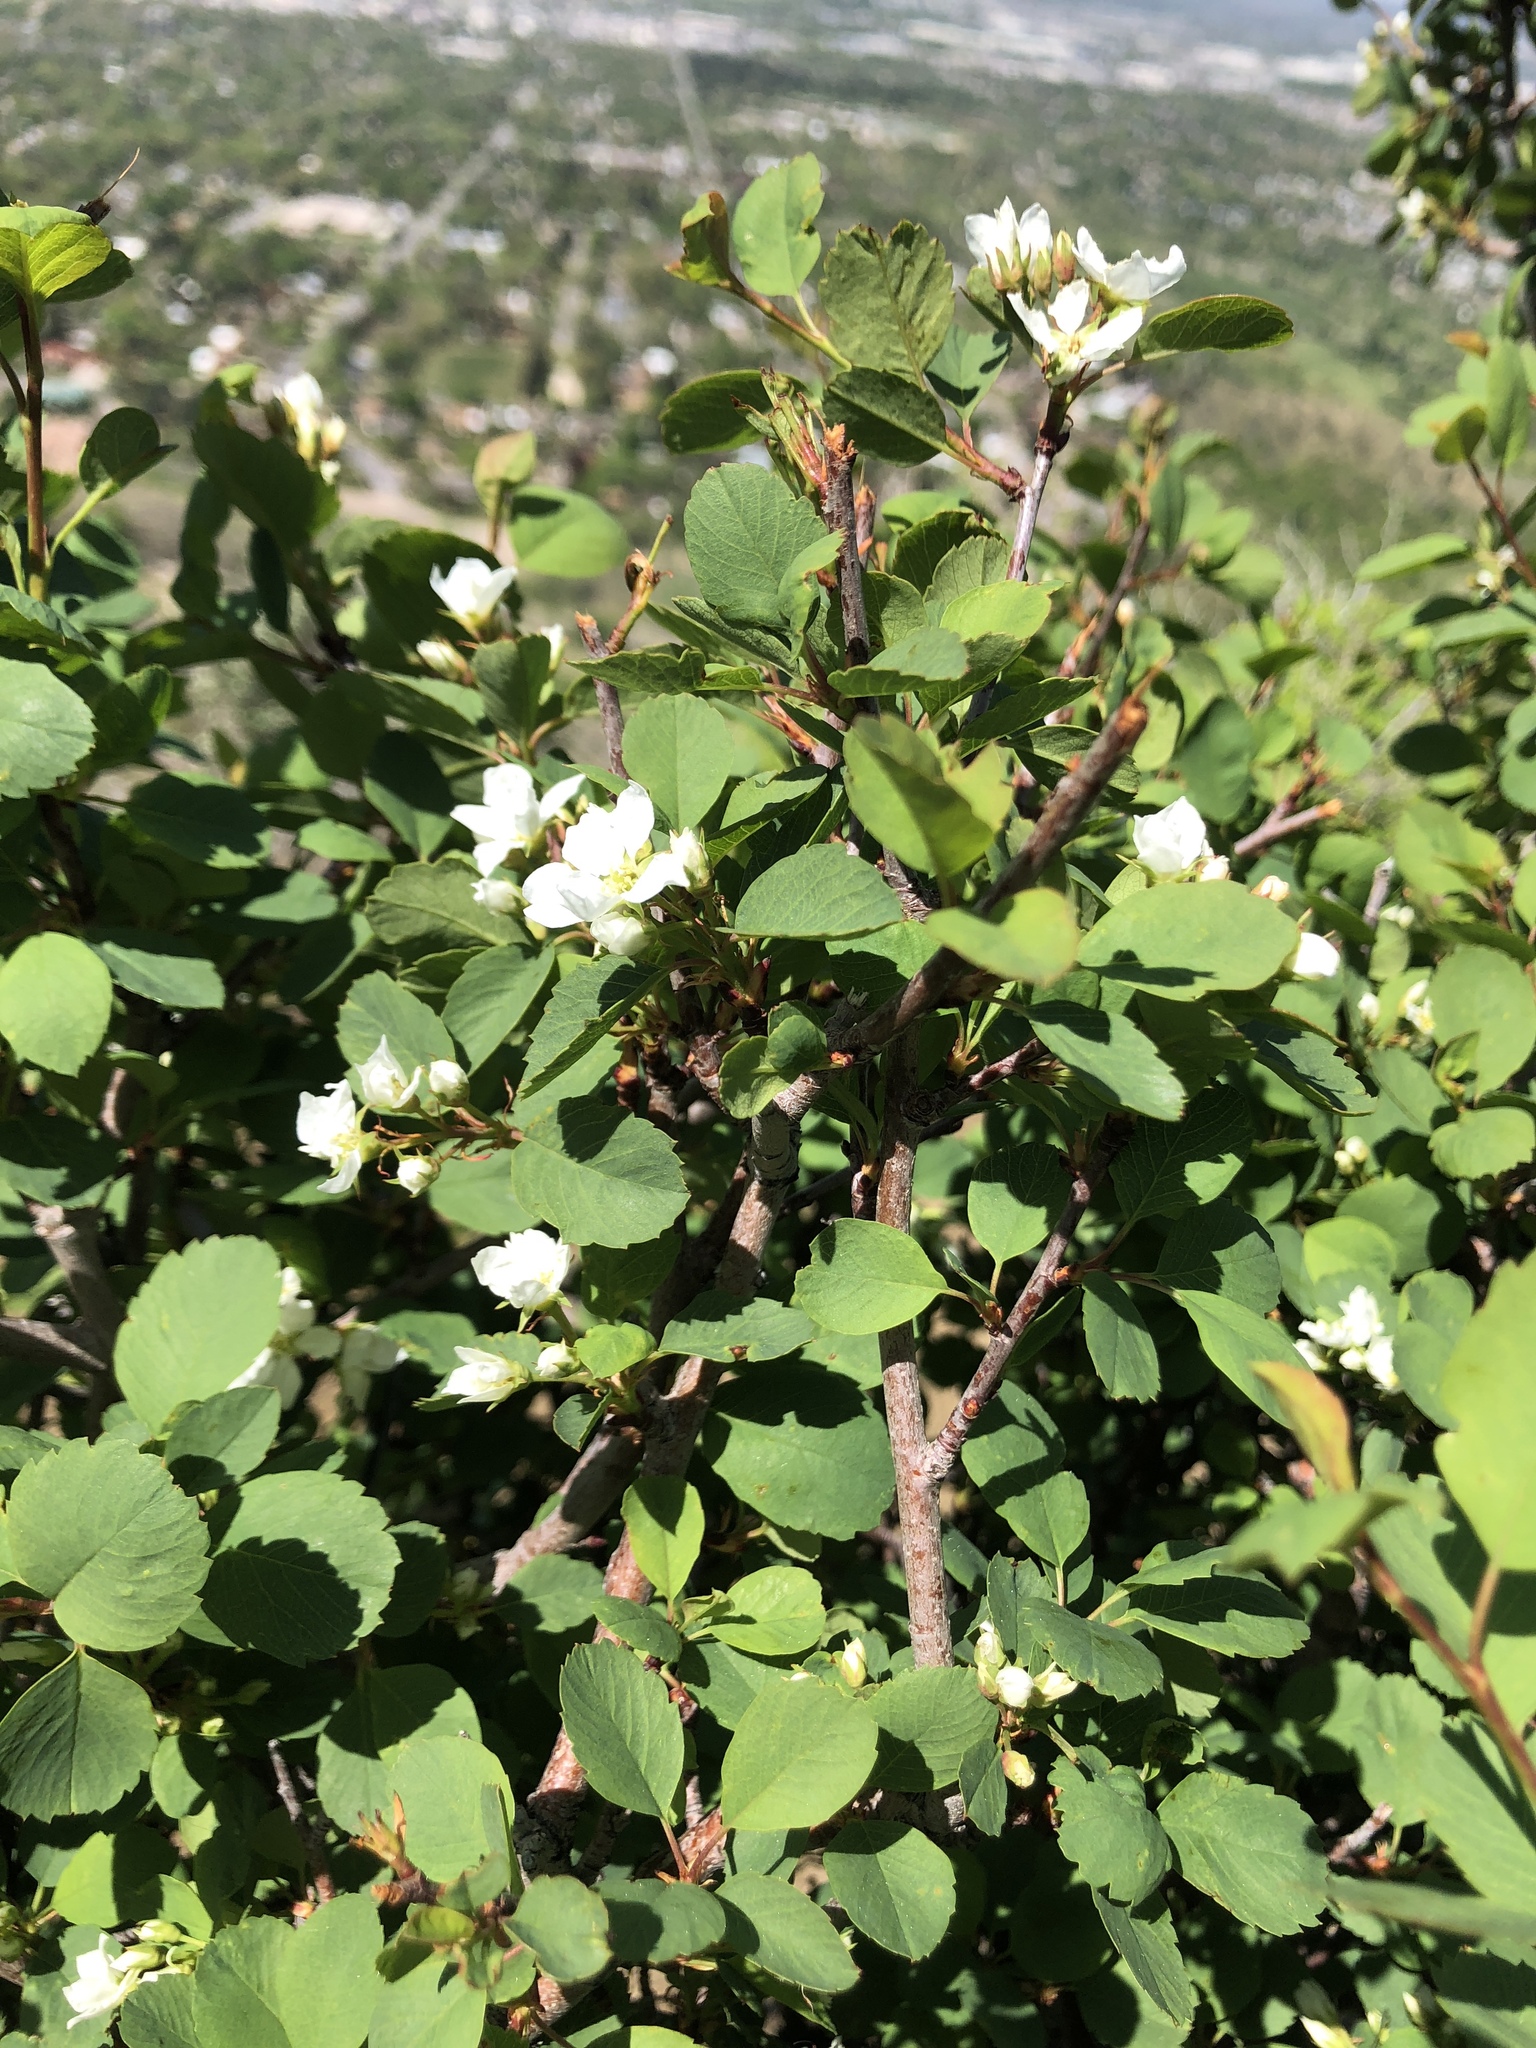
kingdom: Plantae
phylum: Tracheophyta
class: Magnoliopsida
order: Rosales
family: Rosaceae
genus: Amelanchier
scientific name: Amelanchier utahensis
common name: Utah serviceberry
